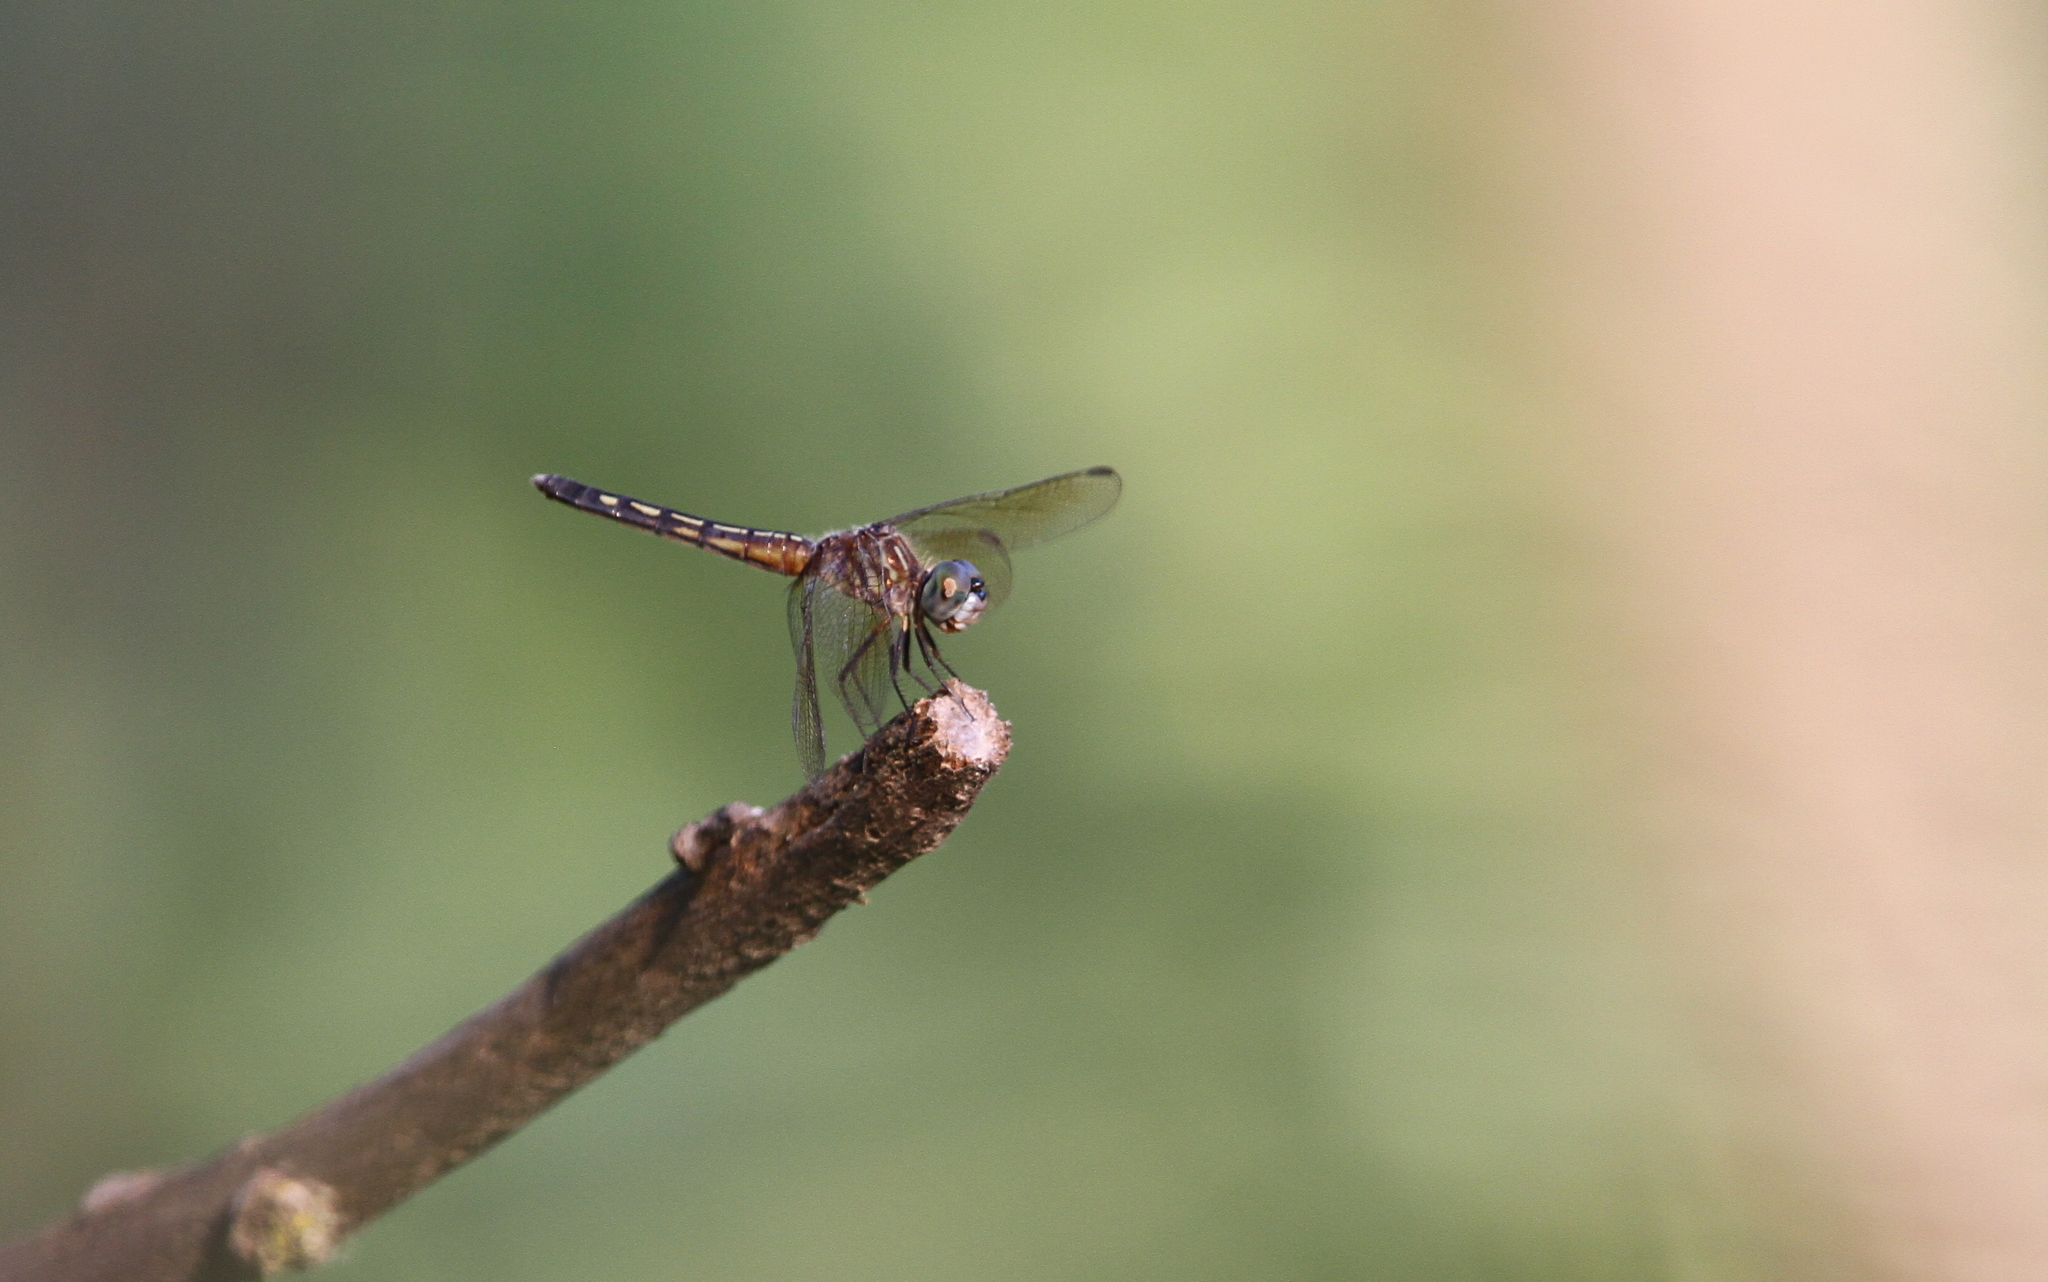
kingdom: Animalia
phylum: Arthropoda
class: Insecta
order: Odonata
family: Libellulidae
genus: Pachydiplax
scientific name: Pachydiplax longipennis
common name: Blue dasher
